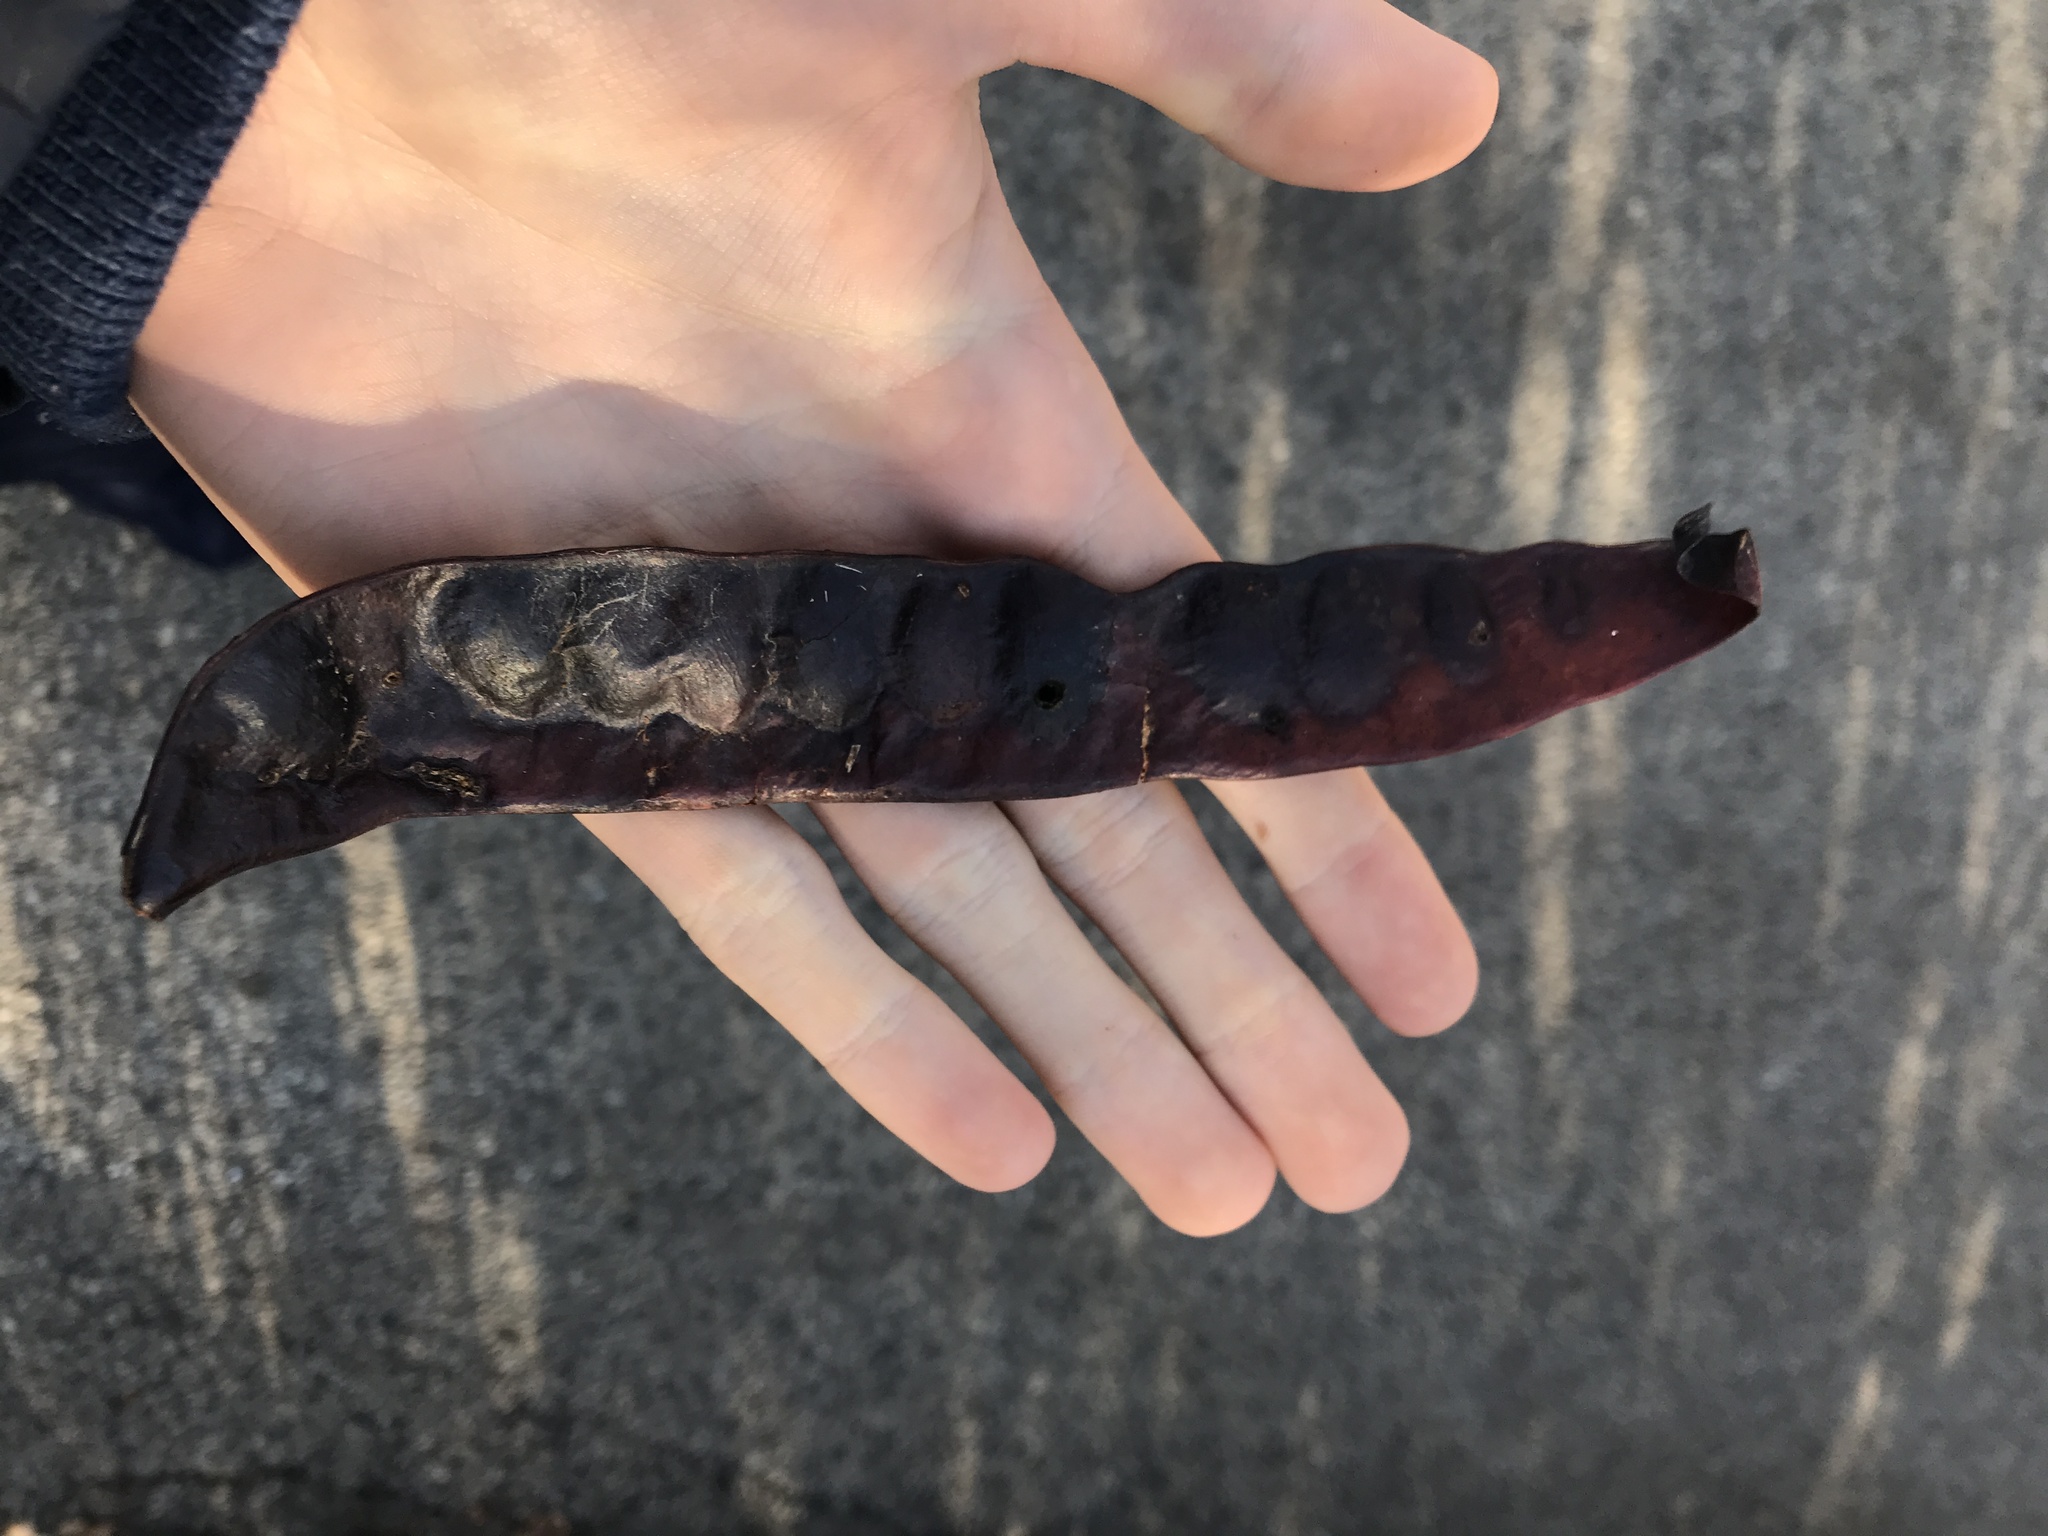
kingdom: Plantae
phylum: Tracheophyta
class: Magnoliopsida
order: Fabales
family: Fabaceae
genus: Gleditsia
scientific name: Gleditsia triacanthos
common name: Common honeylocust
